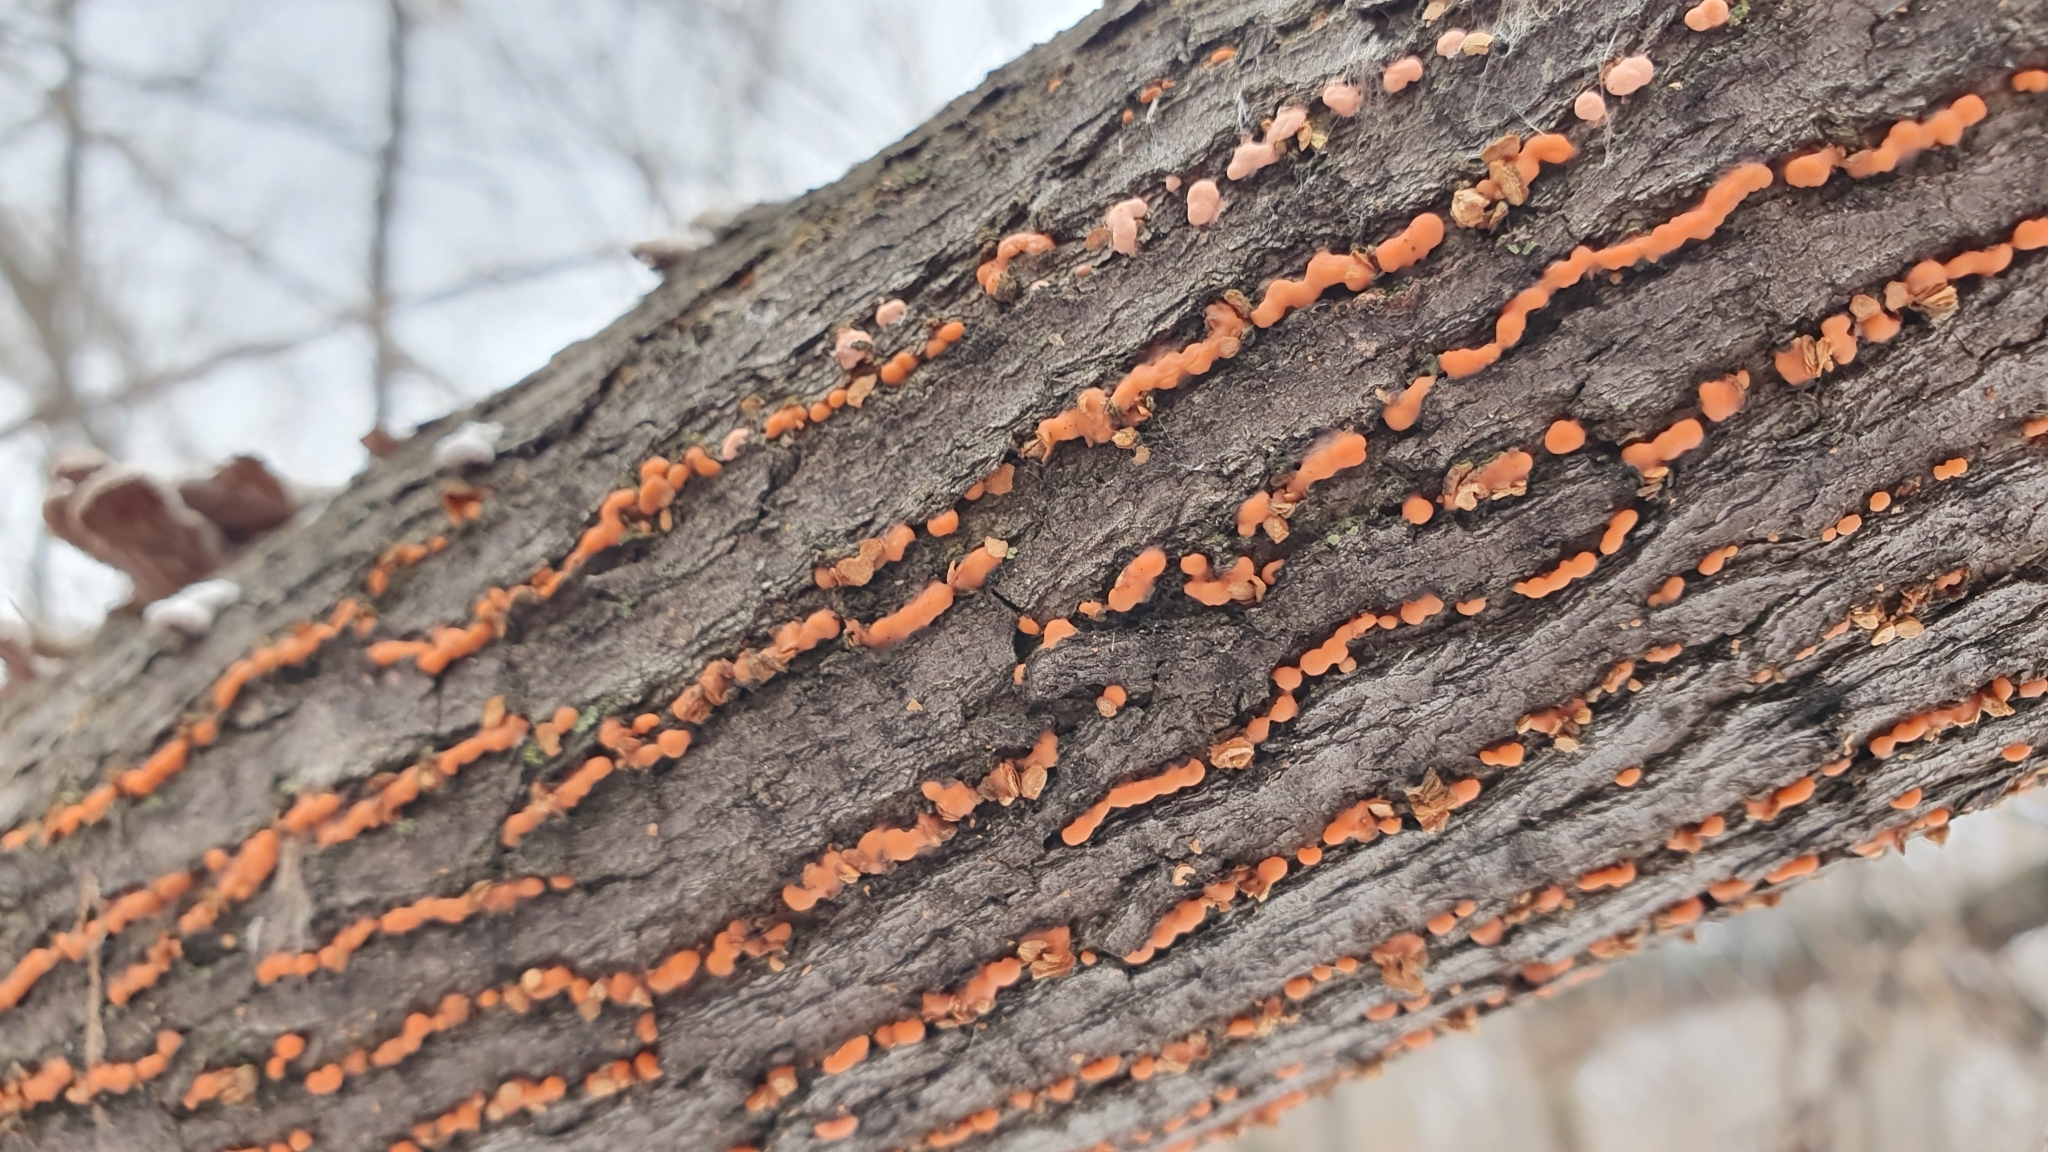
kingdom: Fungi
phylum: Ascomycota
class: Sordariomycetes
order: Hypocreales
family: Nectriaceae
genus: Nectria
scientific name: Nectria cinnabarina
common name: Coral spot
